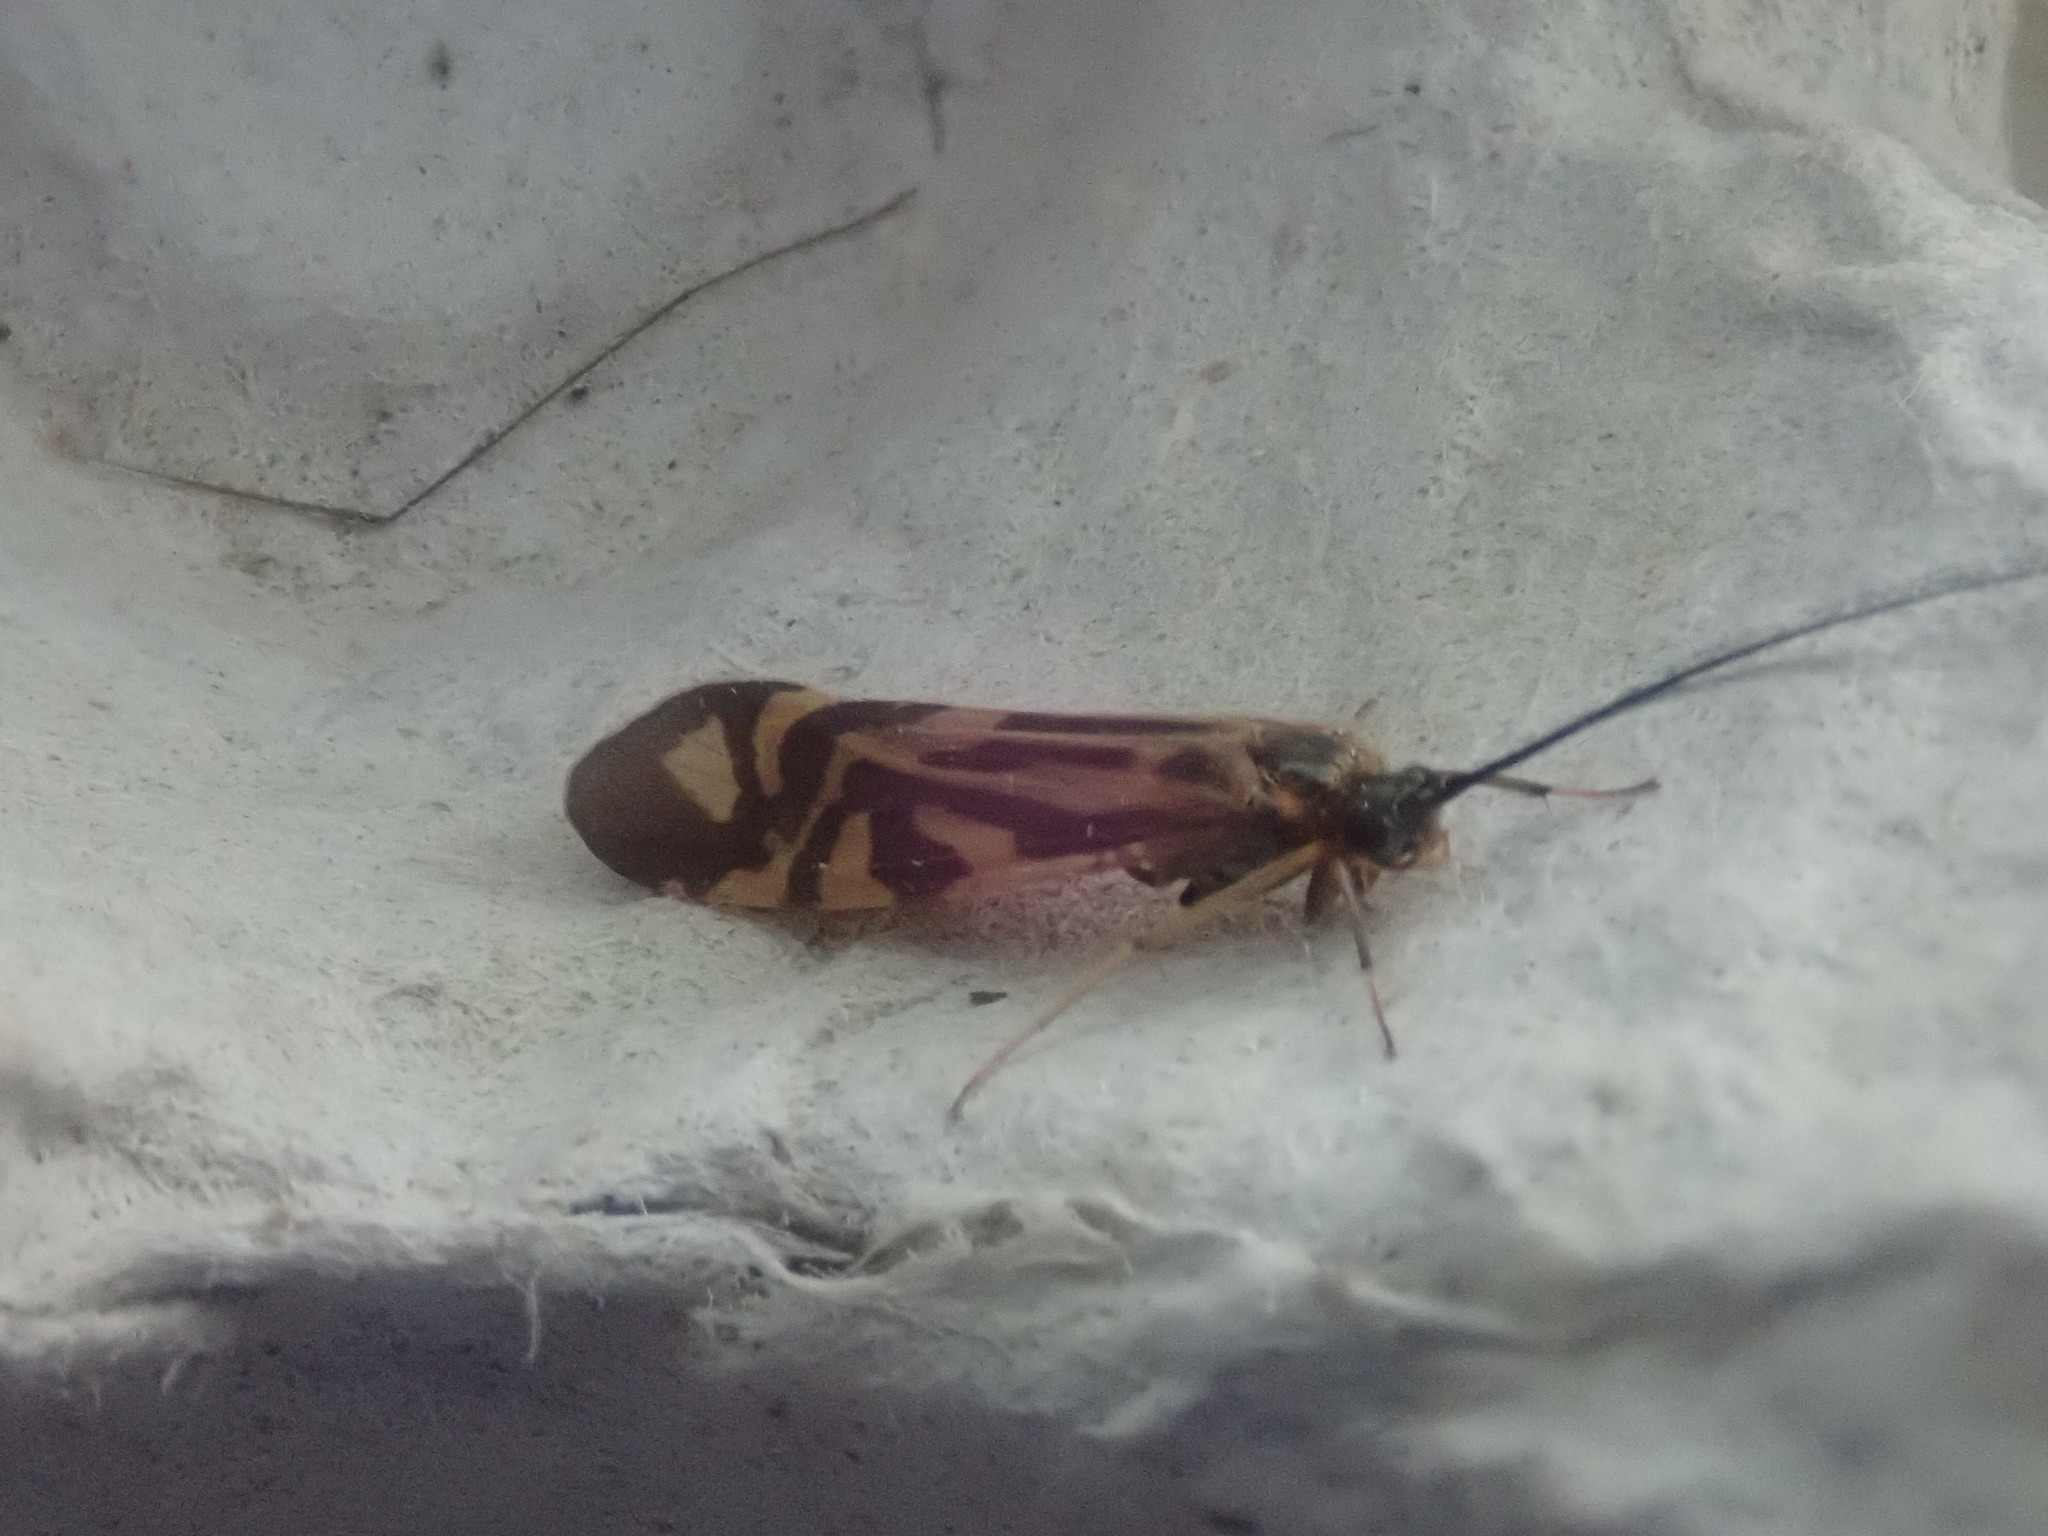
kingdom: Animalia
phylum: Arthropoda
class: Insecta
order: Trichoptera
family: Hydropsychidae
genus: Macrostemum
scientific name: Macrostemum zebratum
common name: Zebra caddisfly
